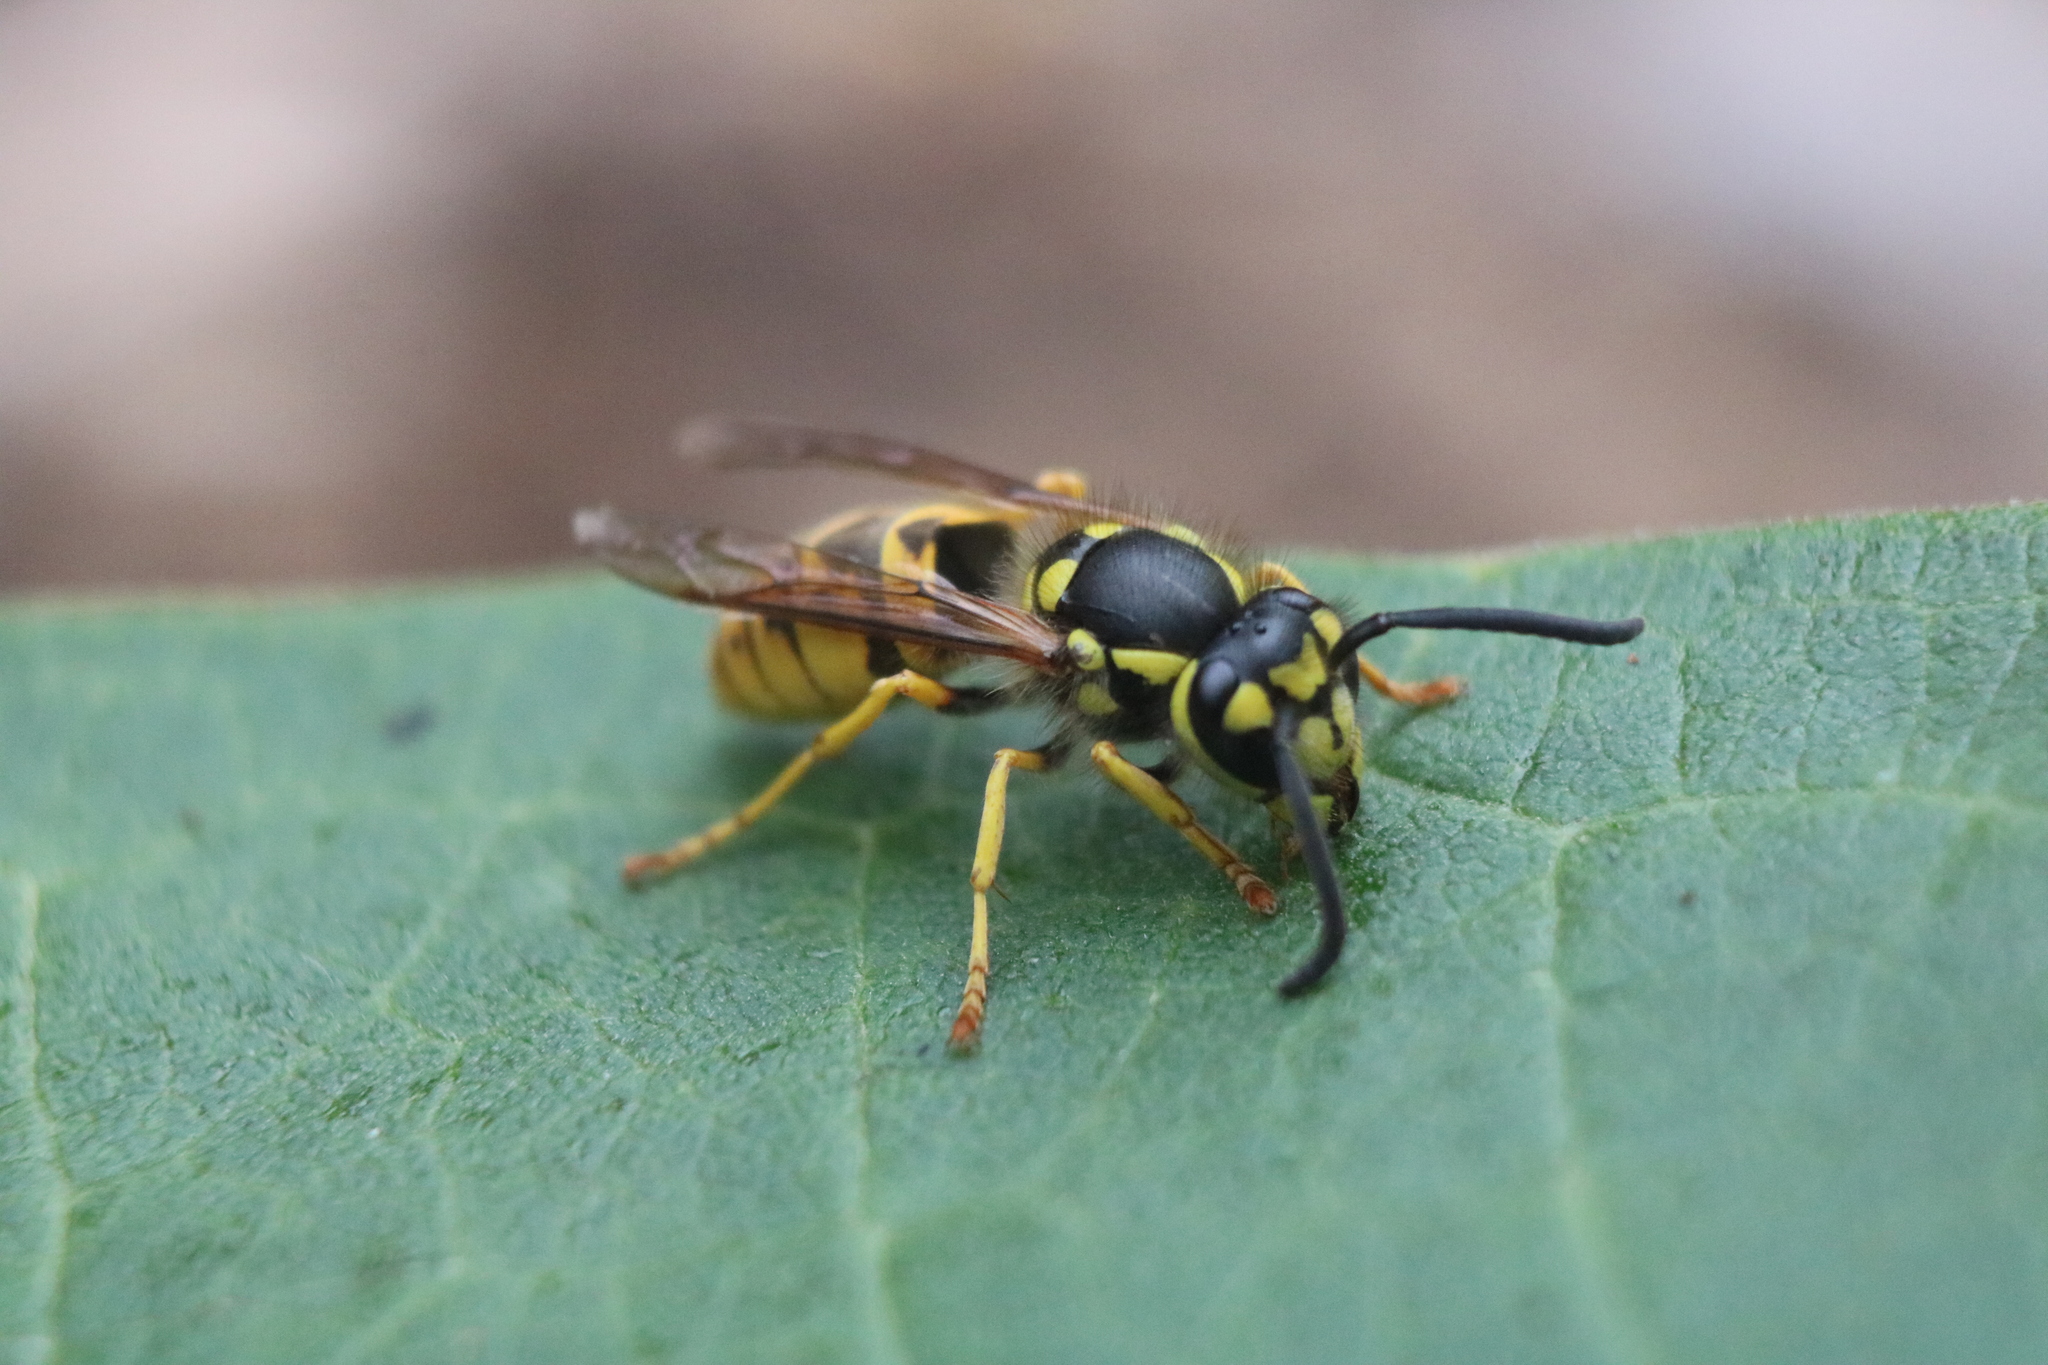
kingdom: Animalia
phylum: Arthropoda
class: Insecta
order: Hymenoptera
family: Vespidae
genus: Vespula
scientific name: Vespula germanica
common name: German wasp
